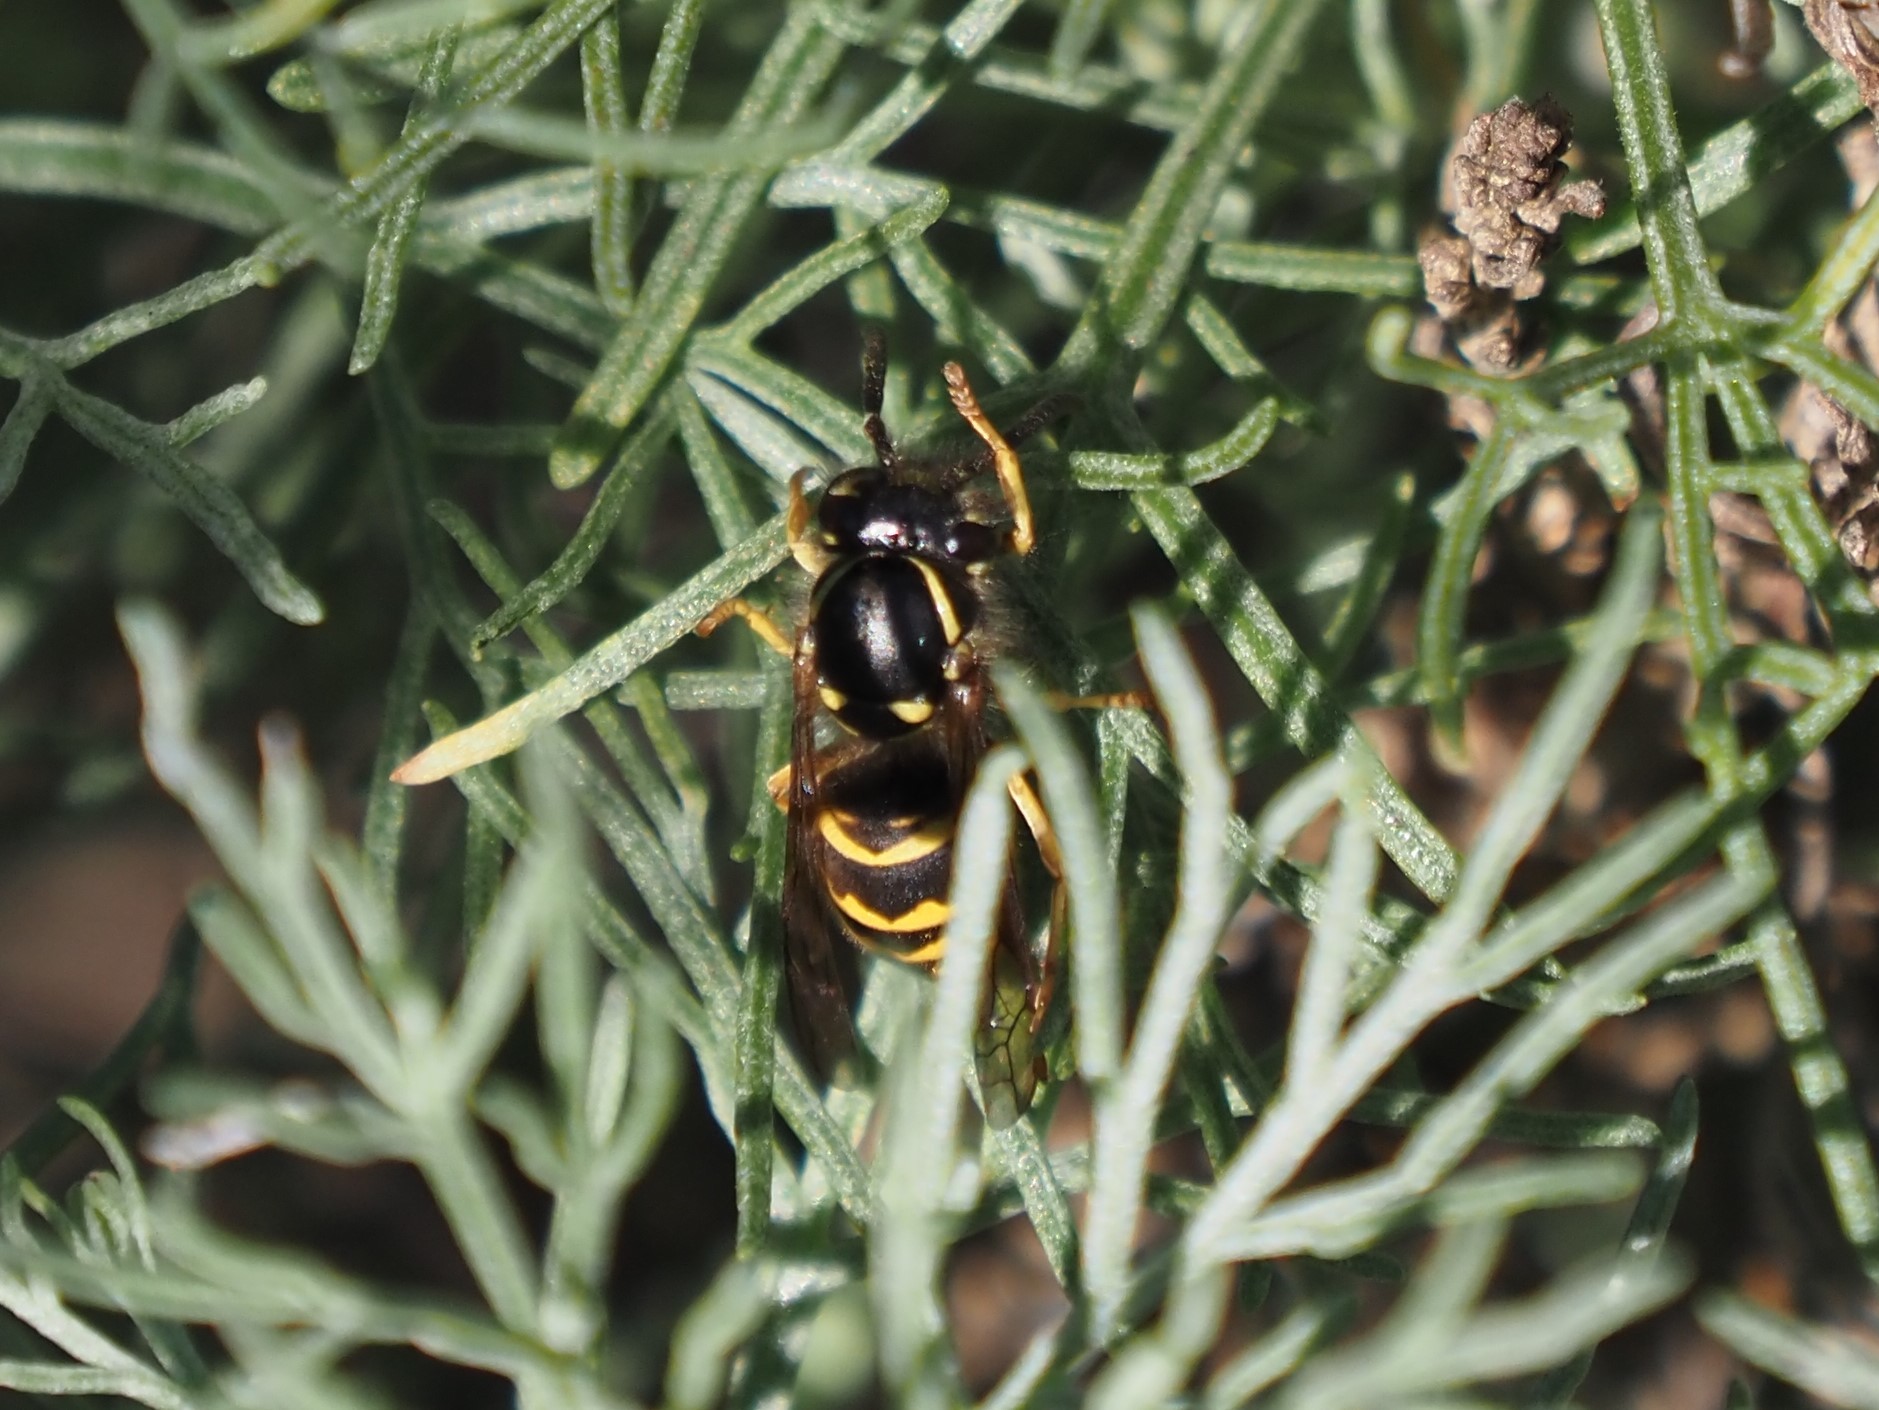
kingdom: Animalia
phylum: Arthropoda
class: Insecta
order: Hymenoptera
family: Vespidae
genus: Vespula
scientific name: Vespula alascensis
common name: Alaska yellowjacket
